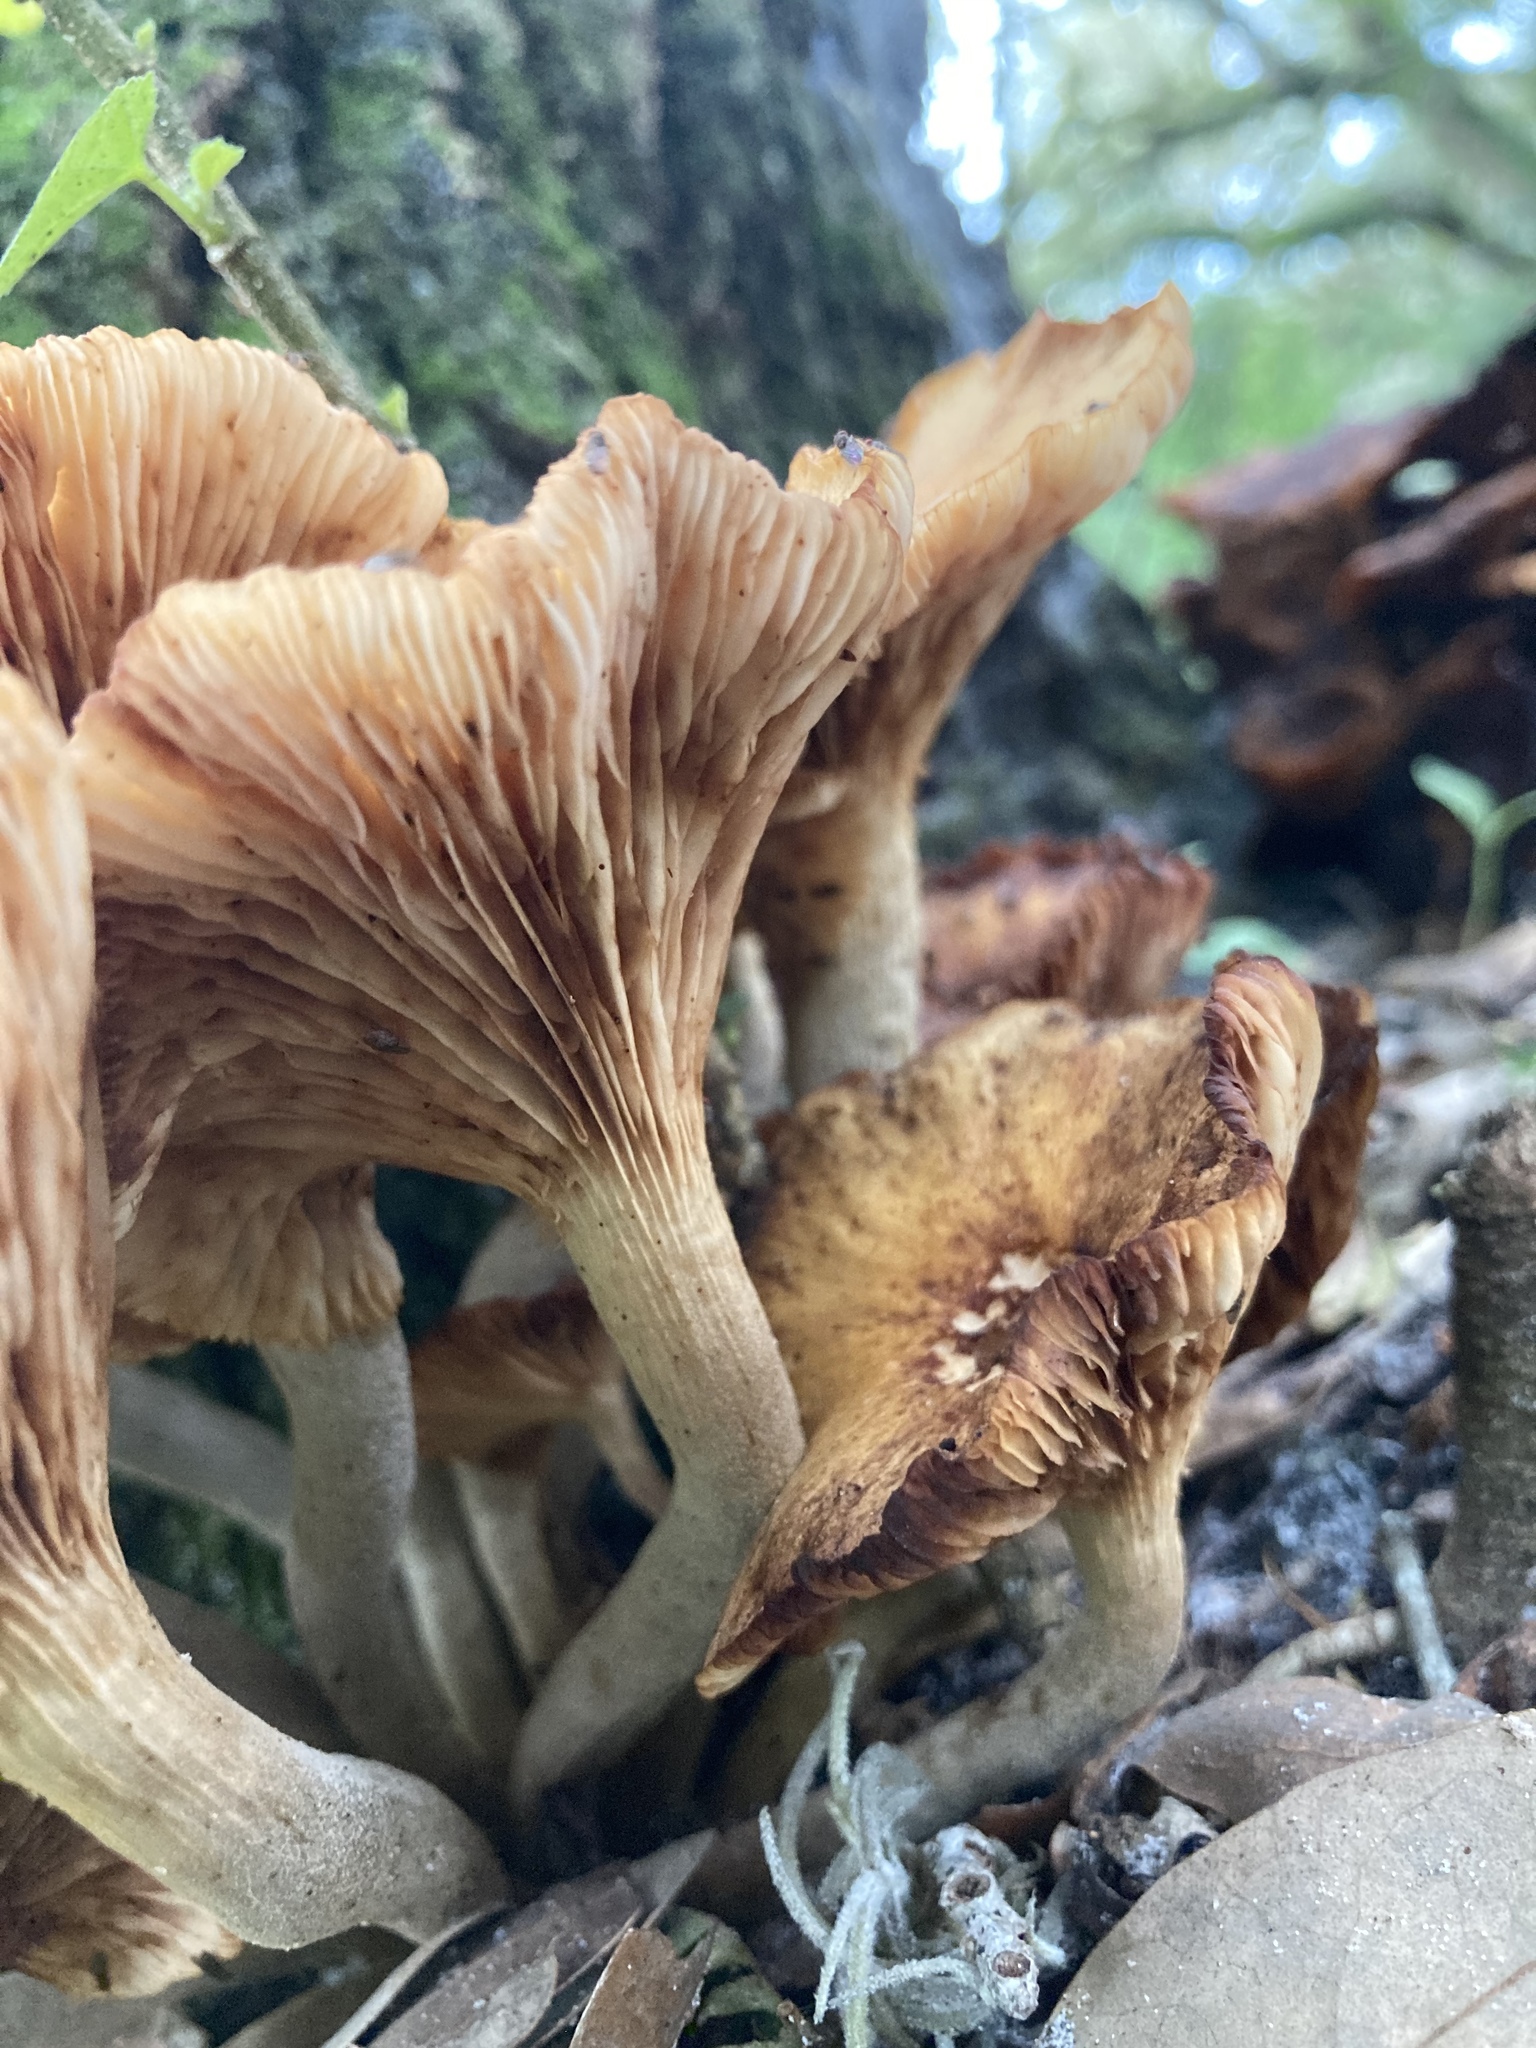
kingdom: Fungi
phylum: Basidiomycota
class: Agaricomycetes
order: Agaricales
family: Physalacriaceae
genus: Desarmillaria
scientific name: Desarmillaria caespitosa
